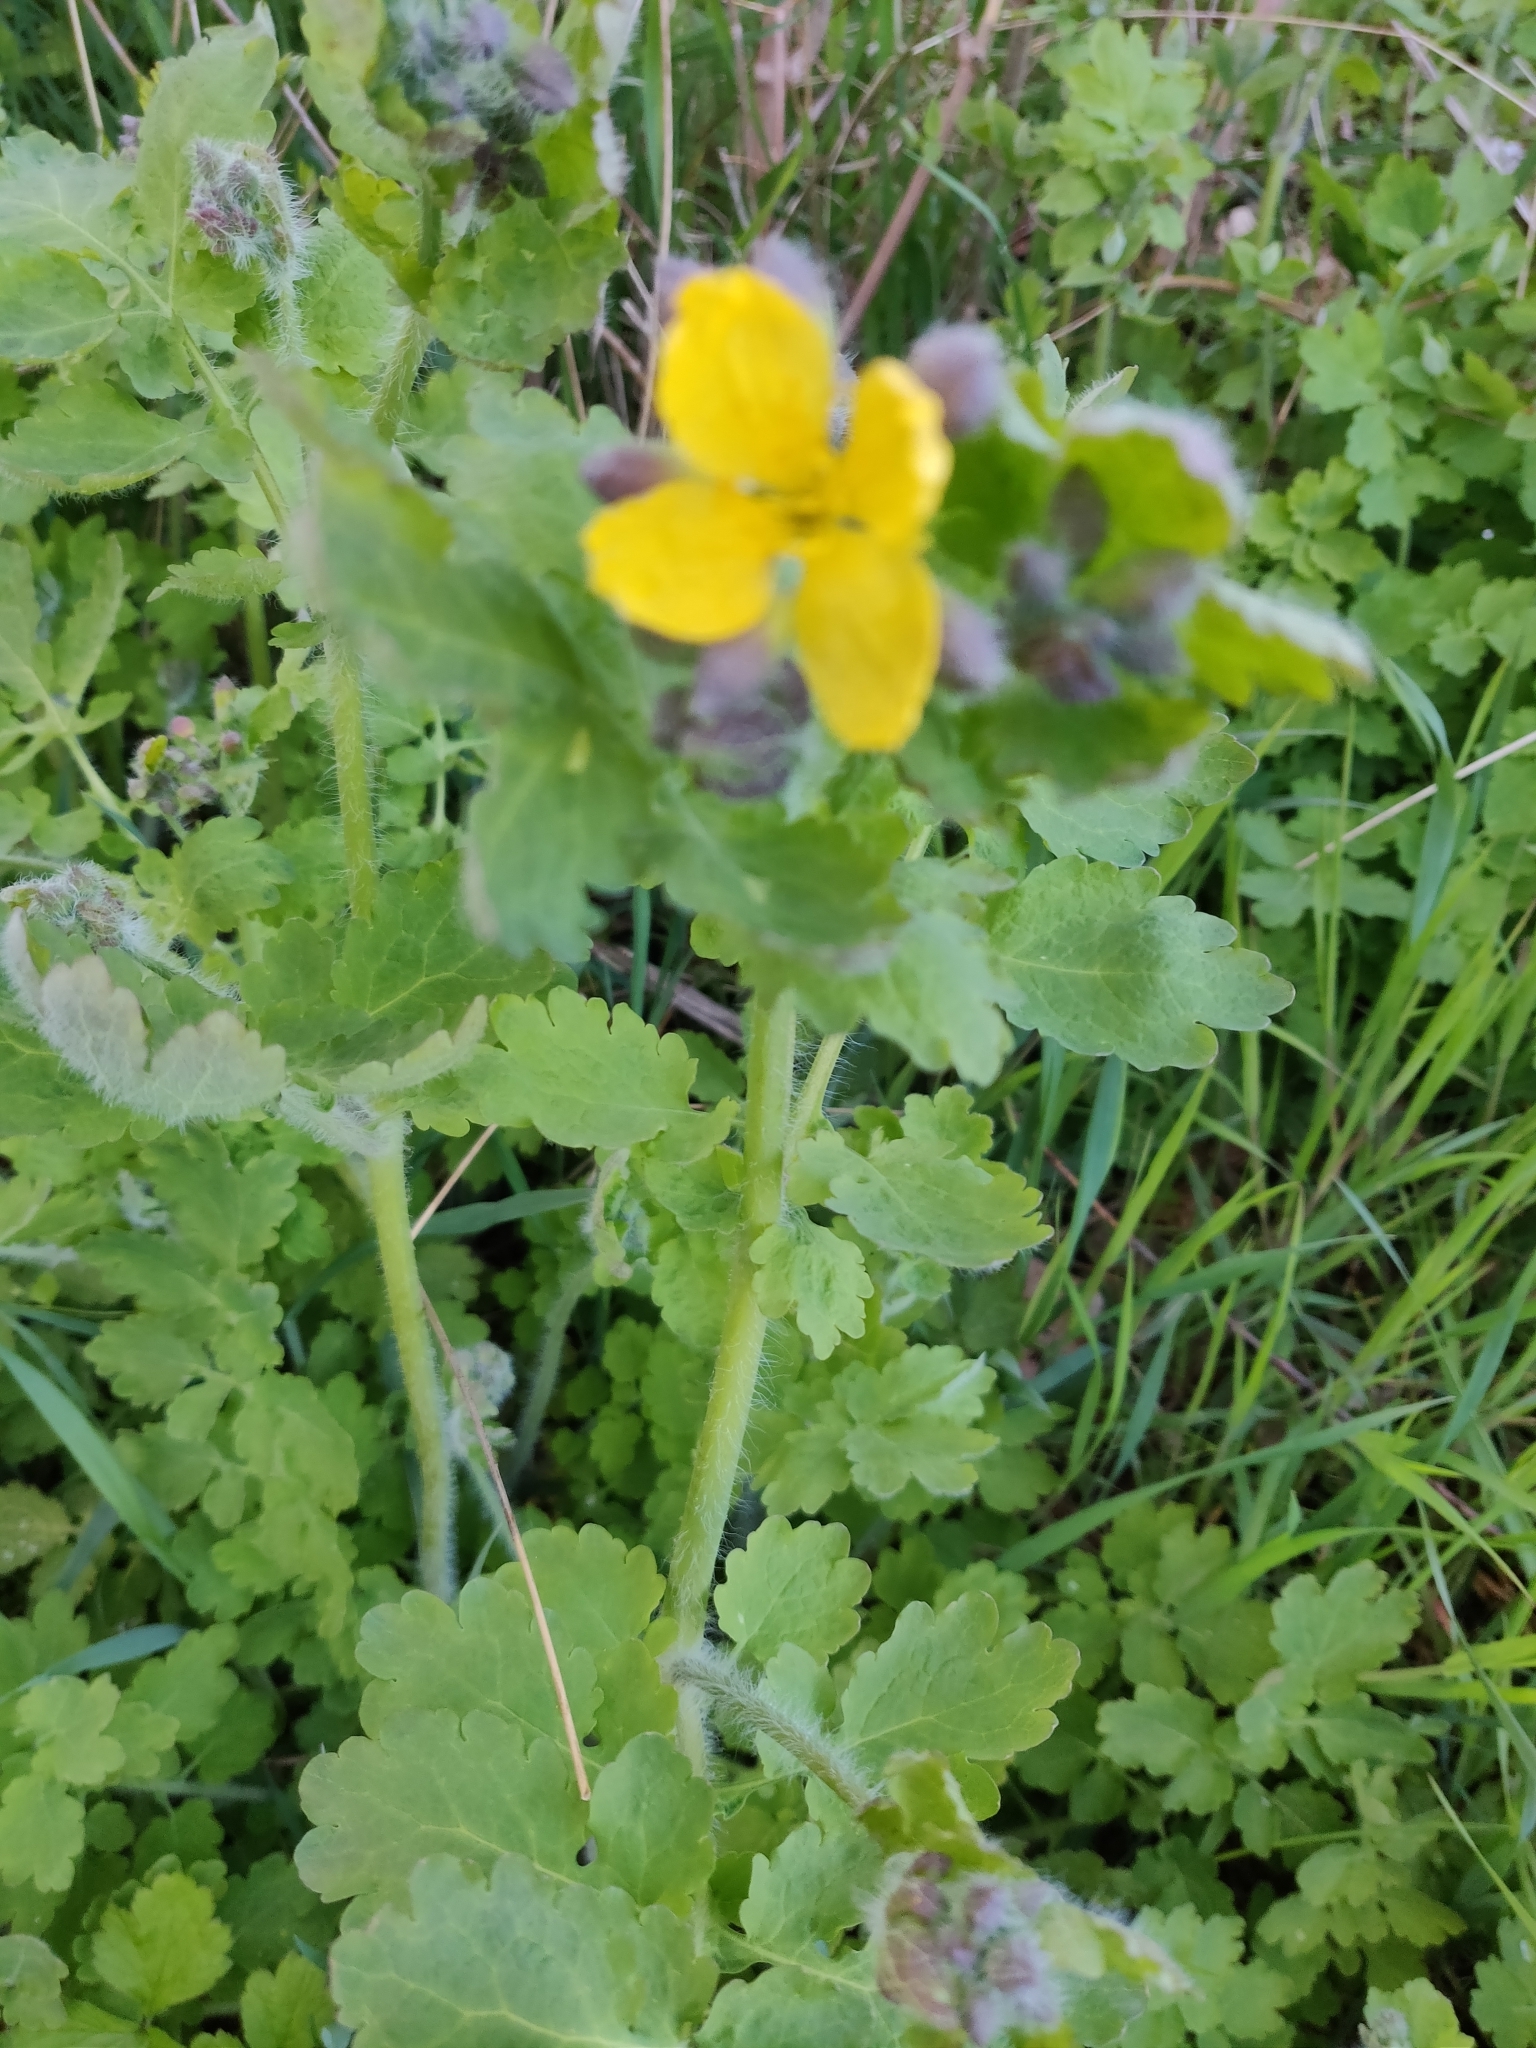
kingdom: Plantae
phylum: Tracheophyta
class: Magnoliopsida
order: Ranunculales
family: Papaveraceae
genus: Chelidonium
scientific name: Chelidonium majus
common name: Greater celandine
